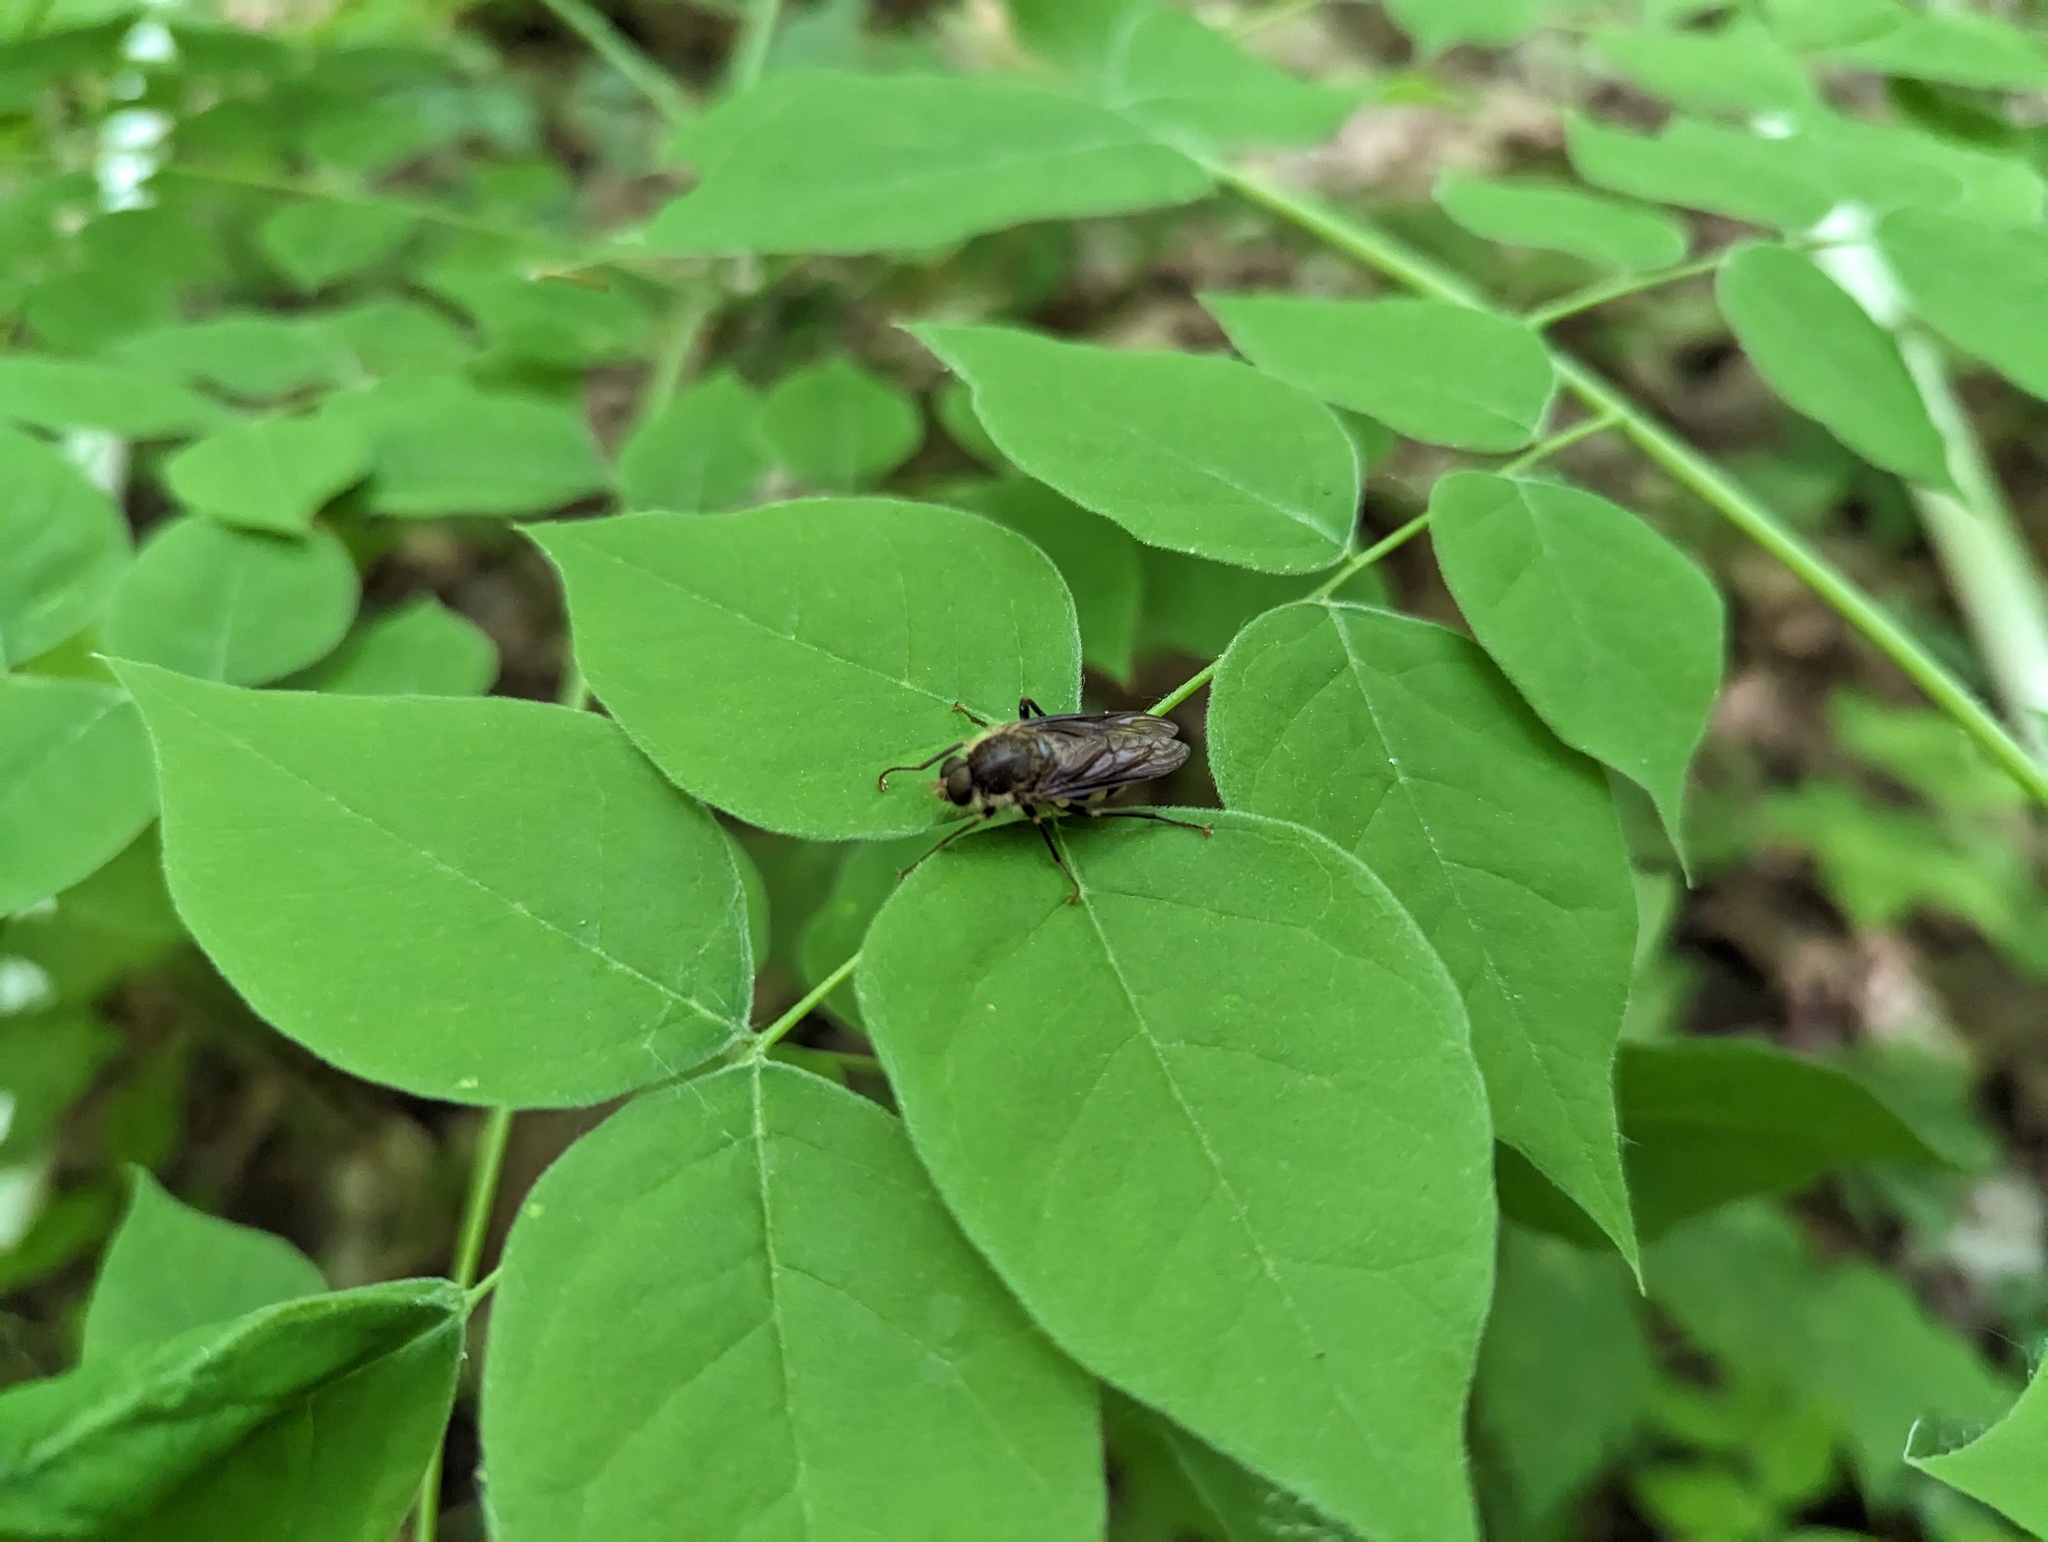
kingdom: Animalia
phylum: Arthropoda
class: Insecta
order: Diptera
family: Xylophagidae
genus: Coenomyia
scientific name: Coenomyia ferruginea
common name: Stink fly
